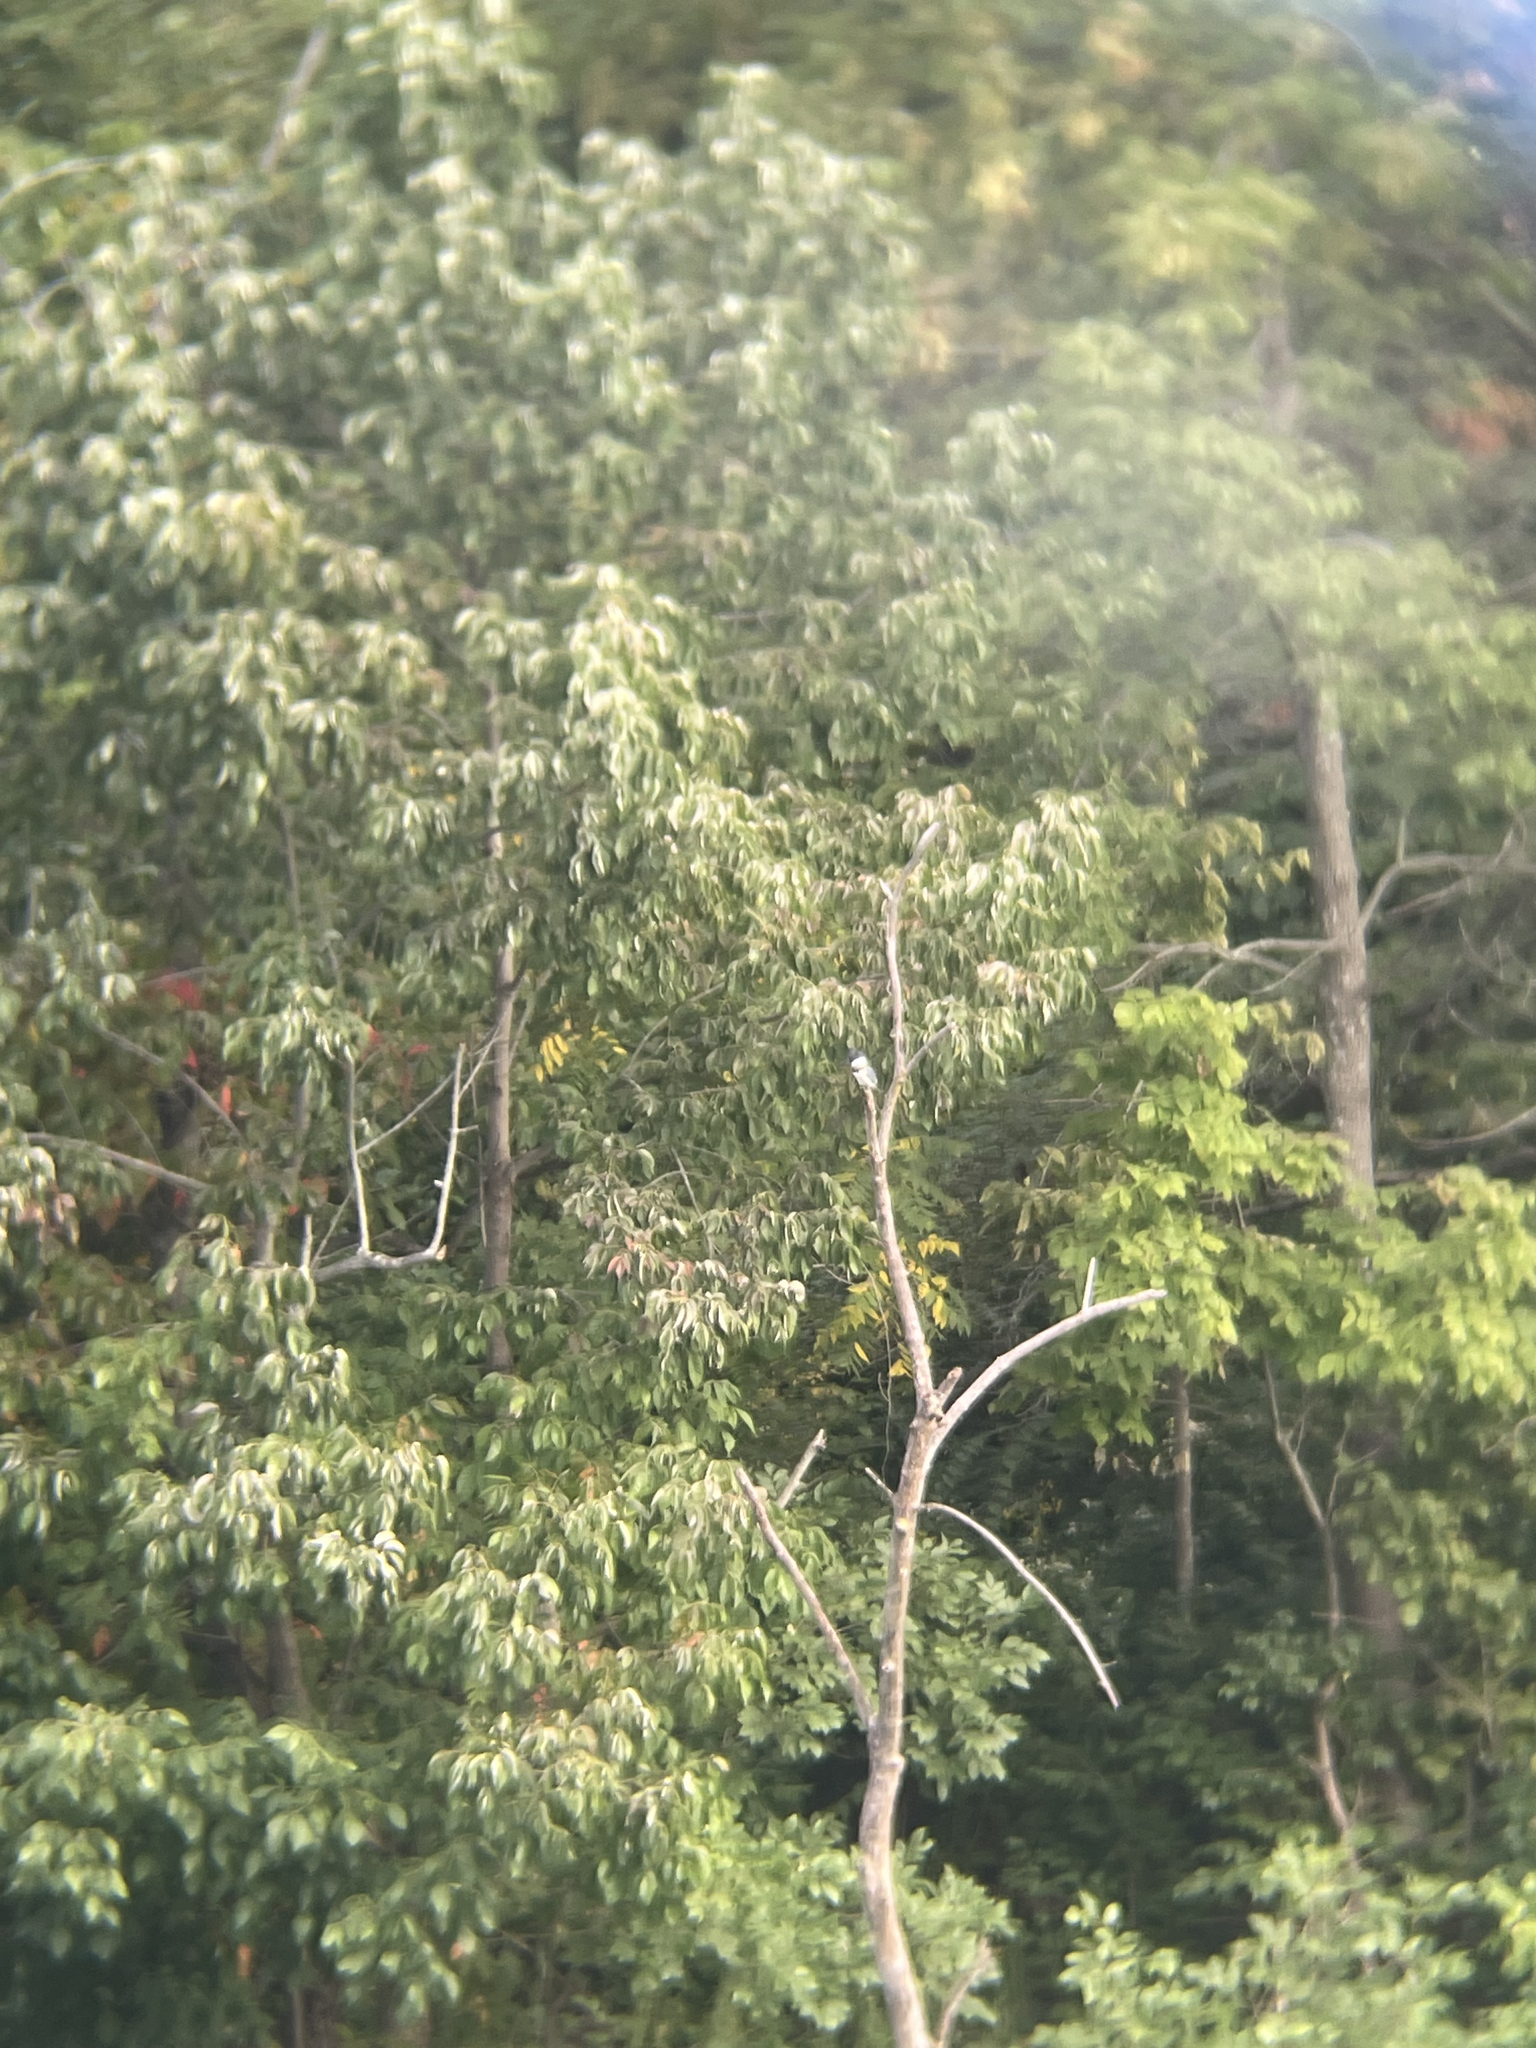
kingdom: Animalia
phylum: Chordata
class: Aves
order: Coraciiformes
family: Alcedinidae
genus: Megaceryle
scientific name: Megaceryle alcyon
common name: Belted kingfisher
